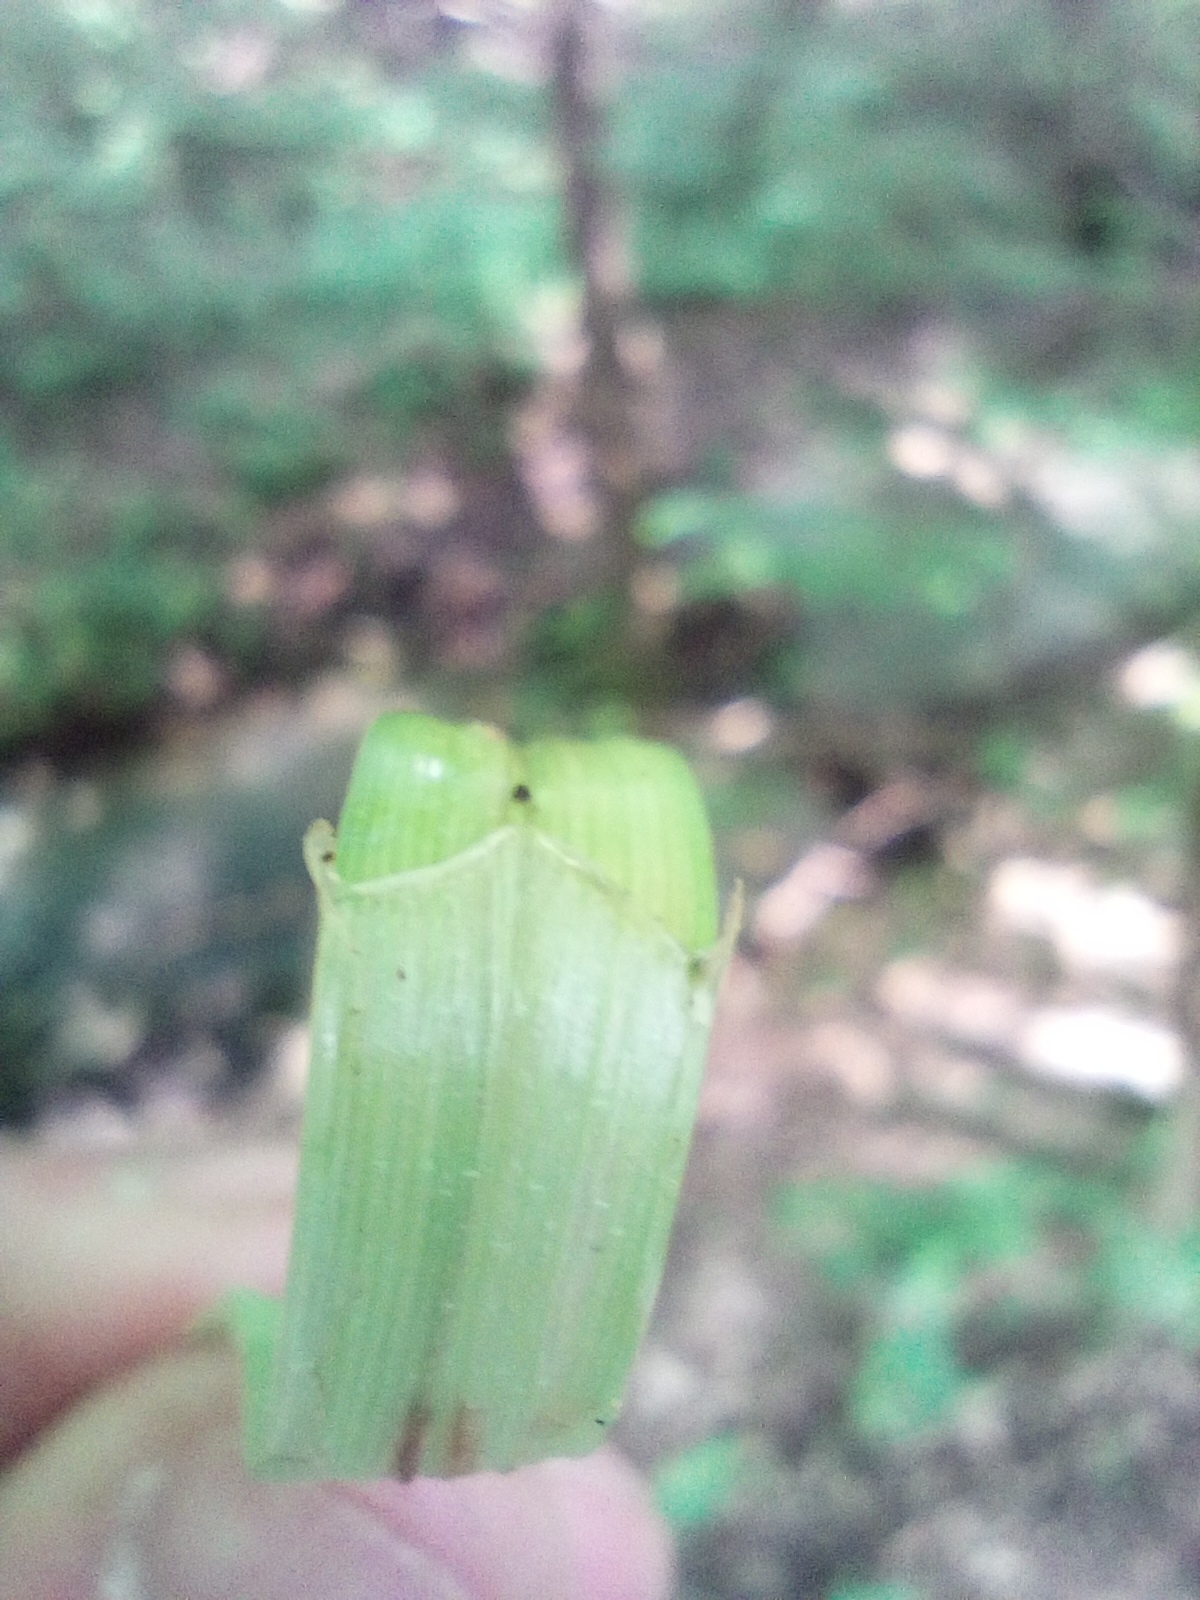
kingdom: Plantae
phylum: Tracheophyta
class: Liliopsida
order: Poales
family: Cyperaceae
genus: Carex
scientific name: Carex vulpina
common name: True fox-sedge
